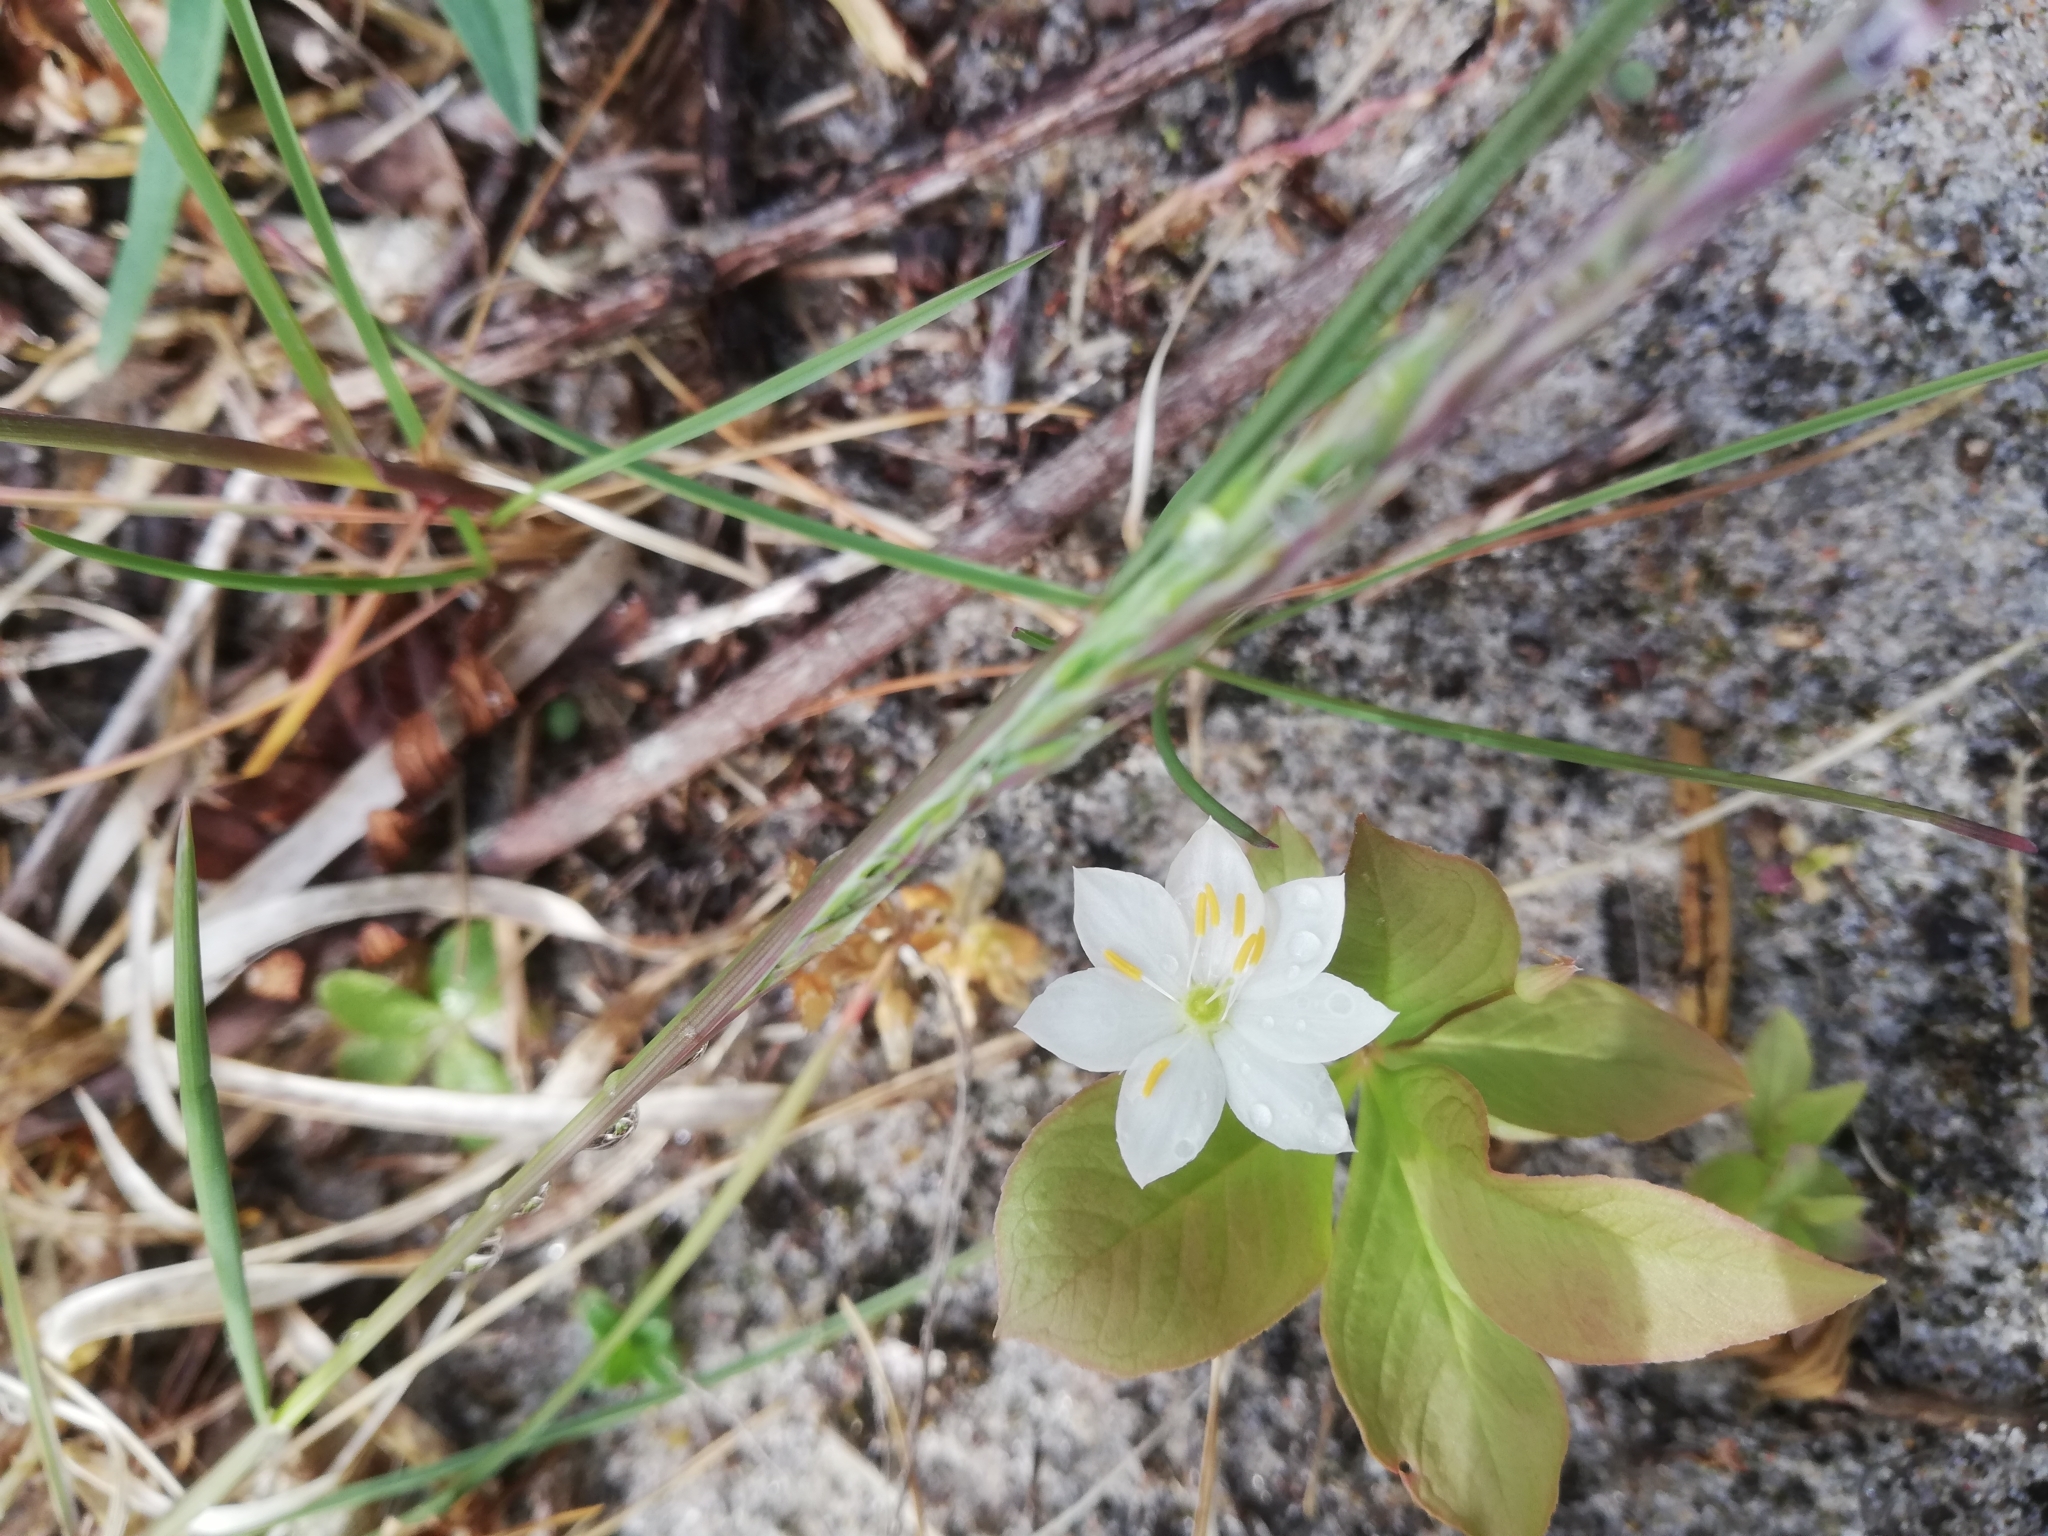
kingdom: Plantae
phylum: Tracheophyta
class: Magnoliopsida
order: Ericales
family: Primulaceae
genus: Lysimachia
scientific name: Lysimachia europaea
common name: Arctic starflower
